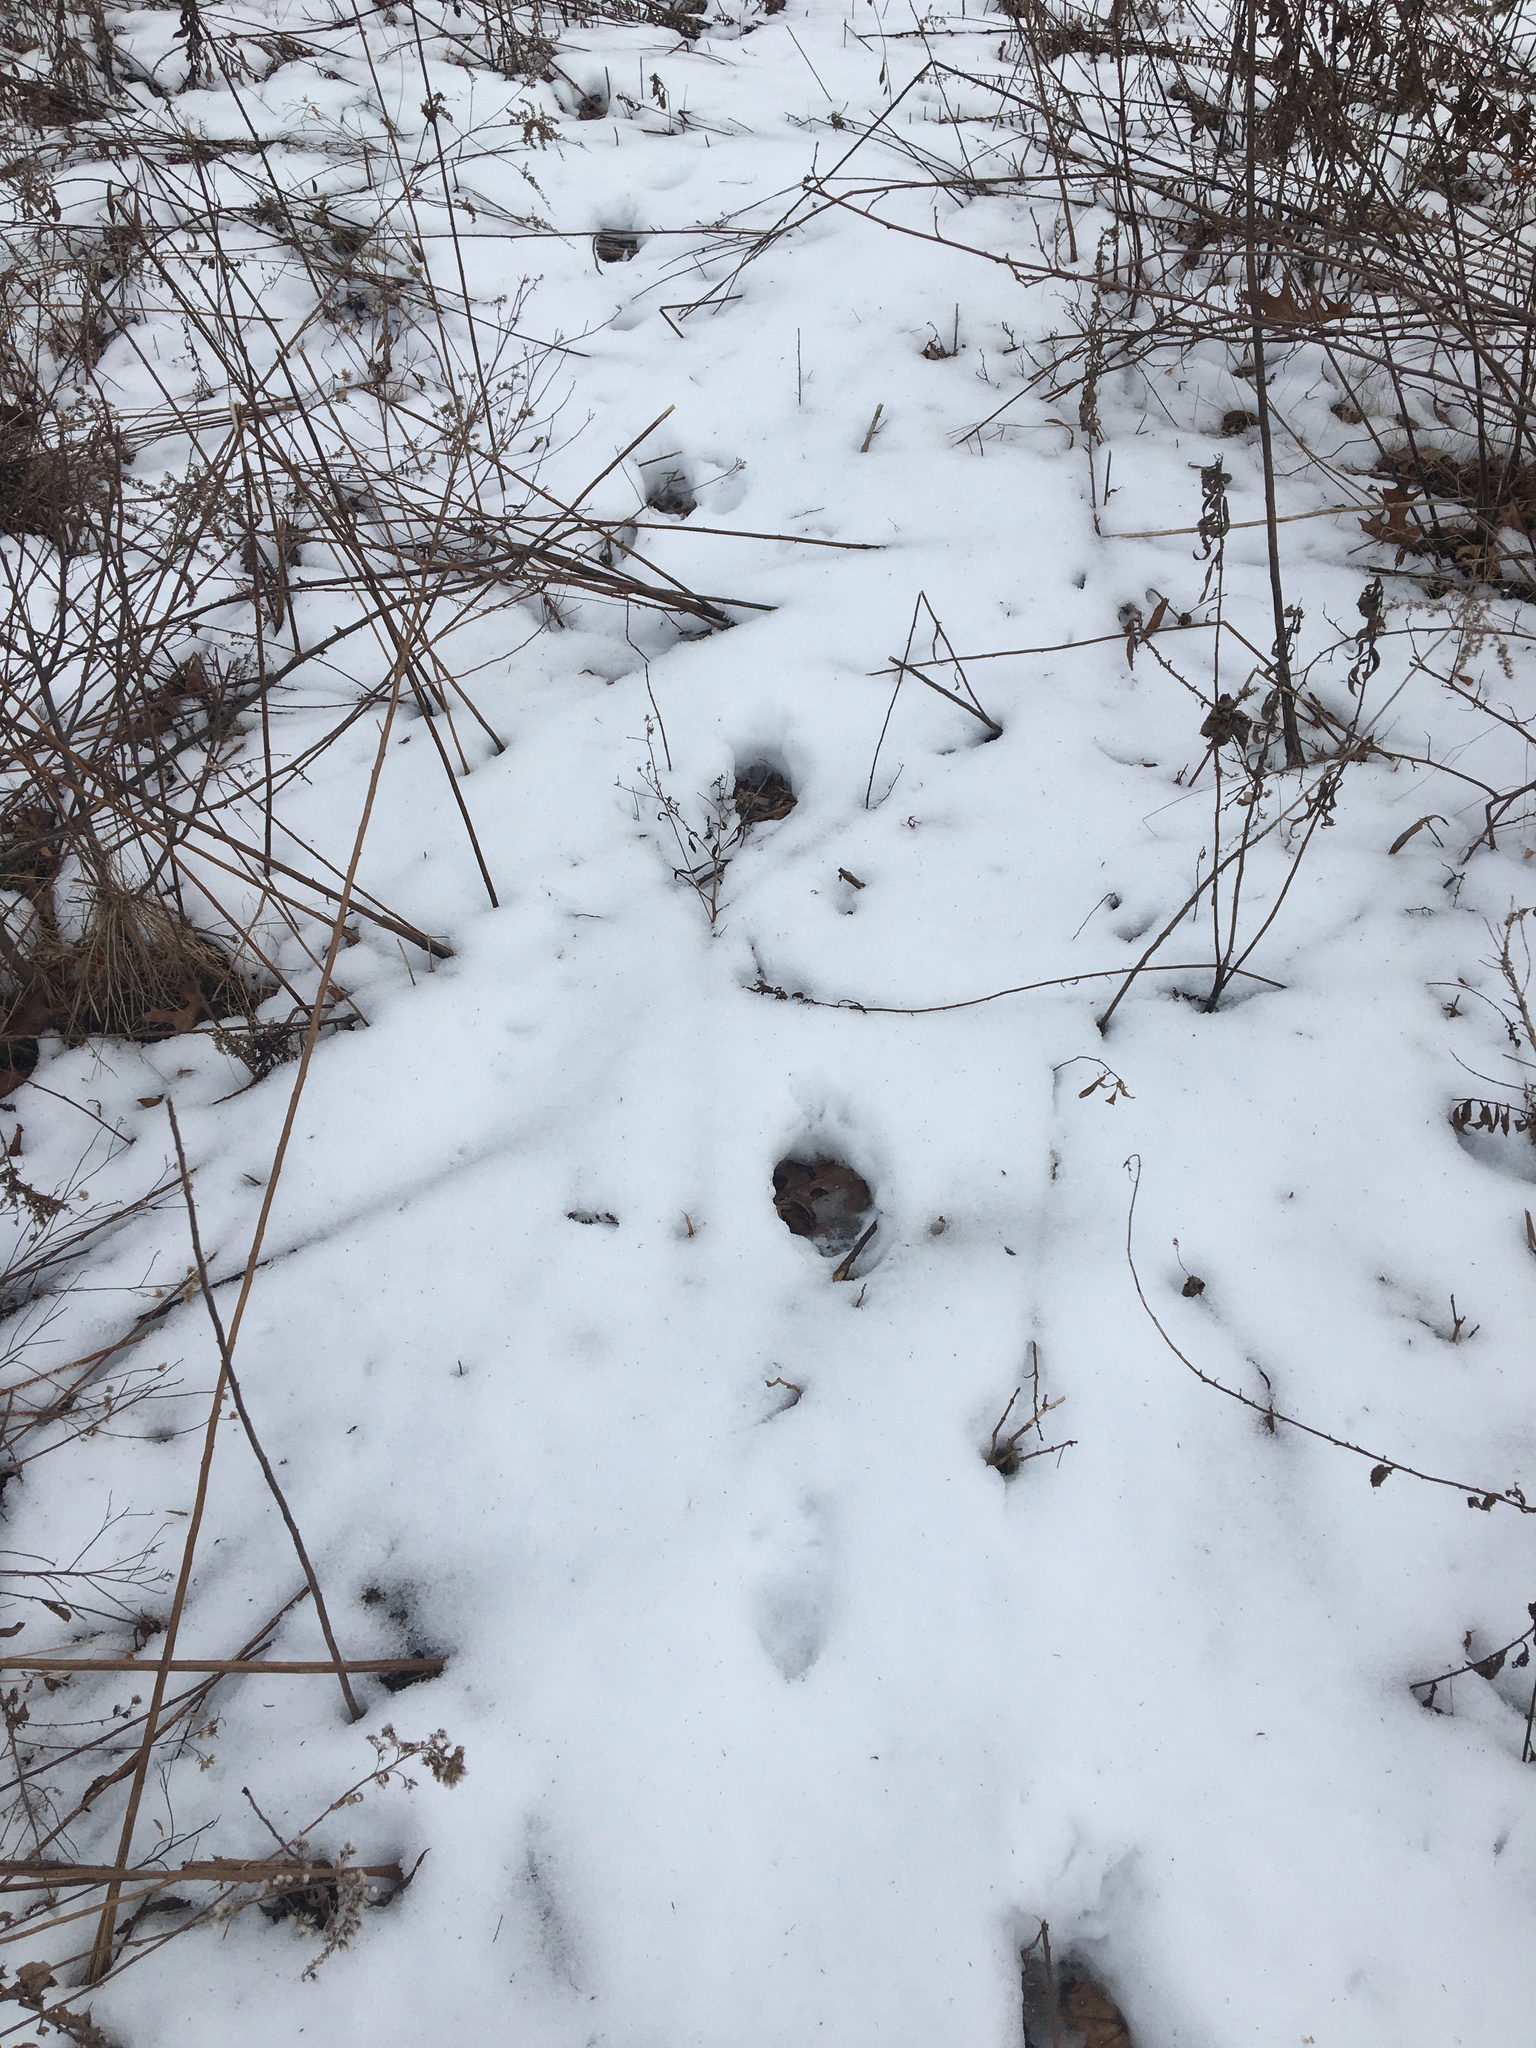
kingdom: Animalia
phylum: Chordata
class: Mammalia
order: Carnivora
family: Canidae
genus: Canis
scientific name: Canis latrans
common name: Coyote
